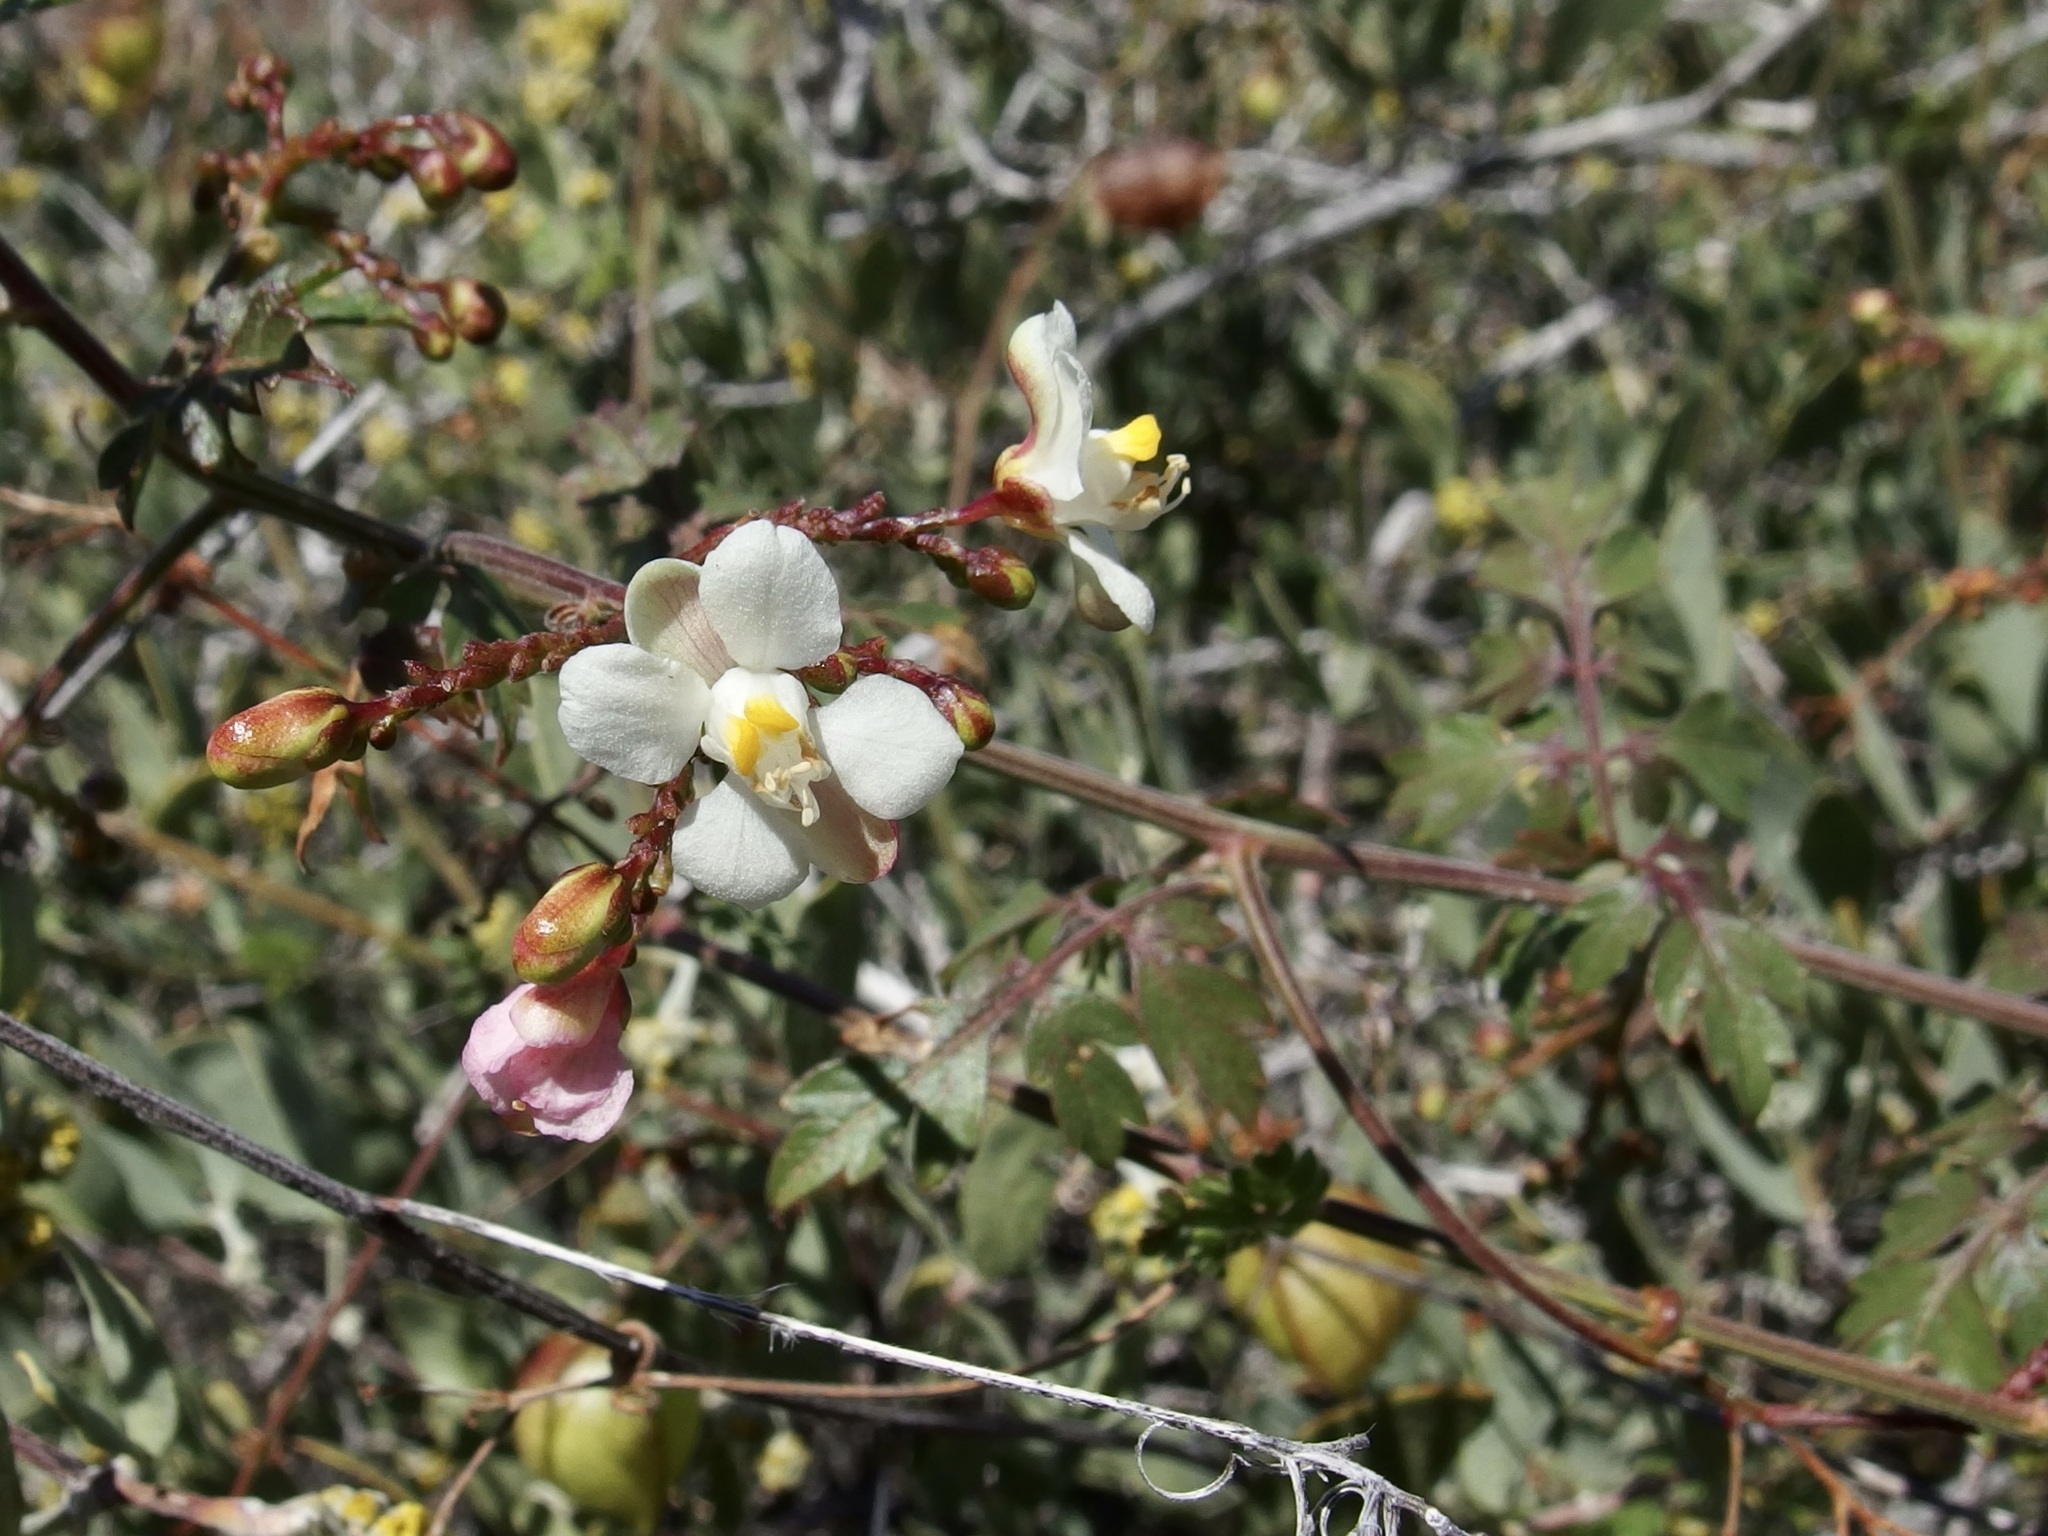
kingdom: Plantae
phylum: Tracheophyta
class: Magnoliopsida
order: Sapindales
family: Sapindaceae
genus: Cardiospermum
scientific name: Cardiospermum corindum
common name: Faux persil
